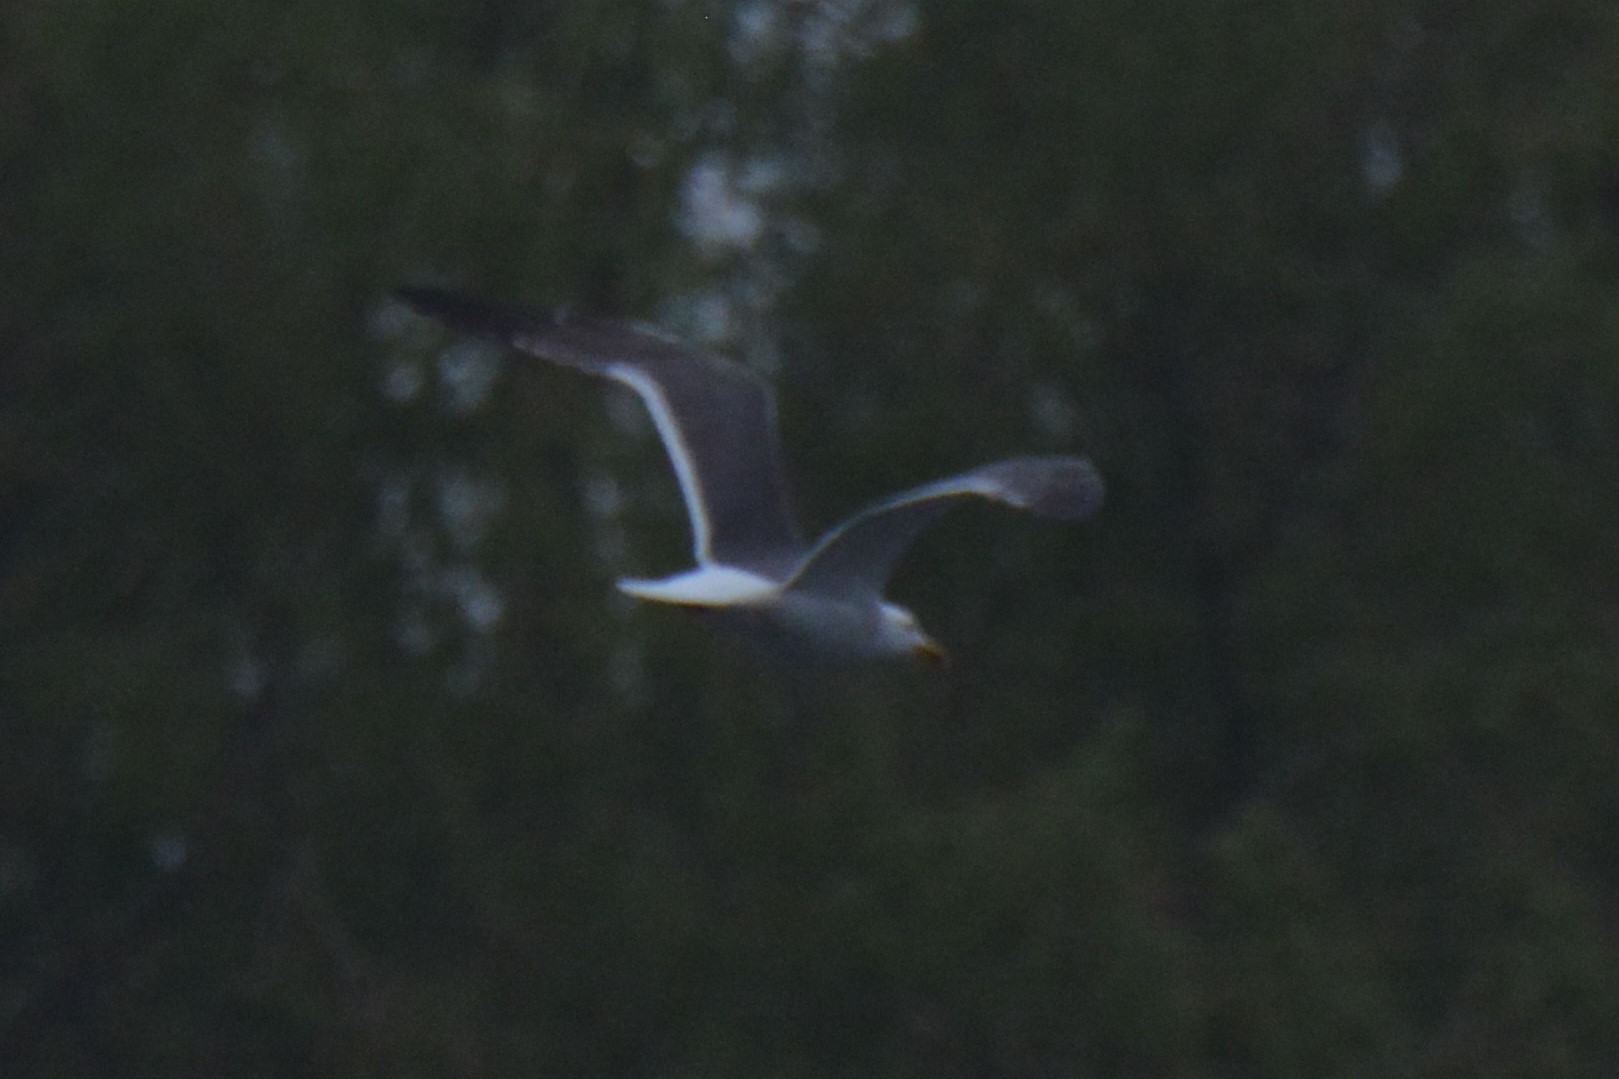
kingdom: Animalia
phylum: Chordata
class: Aves
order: Charadriiformes
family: Laridae
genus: Larus
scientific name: Larus fuscus
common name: Lesser black-backed gull
